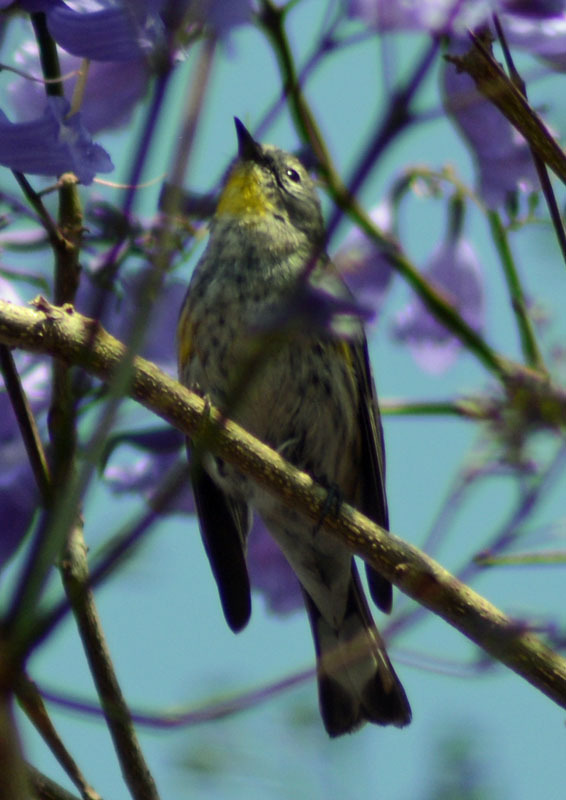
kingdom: Animalia
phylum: Chordata
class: Aves
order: Passeriformes
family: Parulidae
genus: Setophaga
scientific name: Setophaga auduboni
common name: Audubon's warbler
